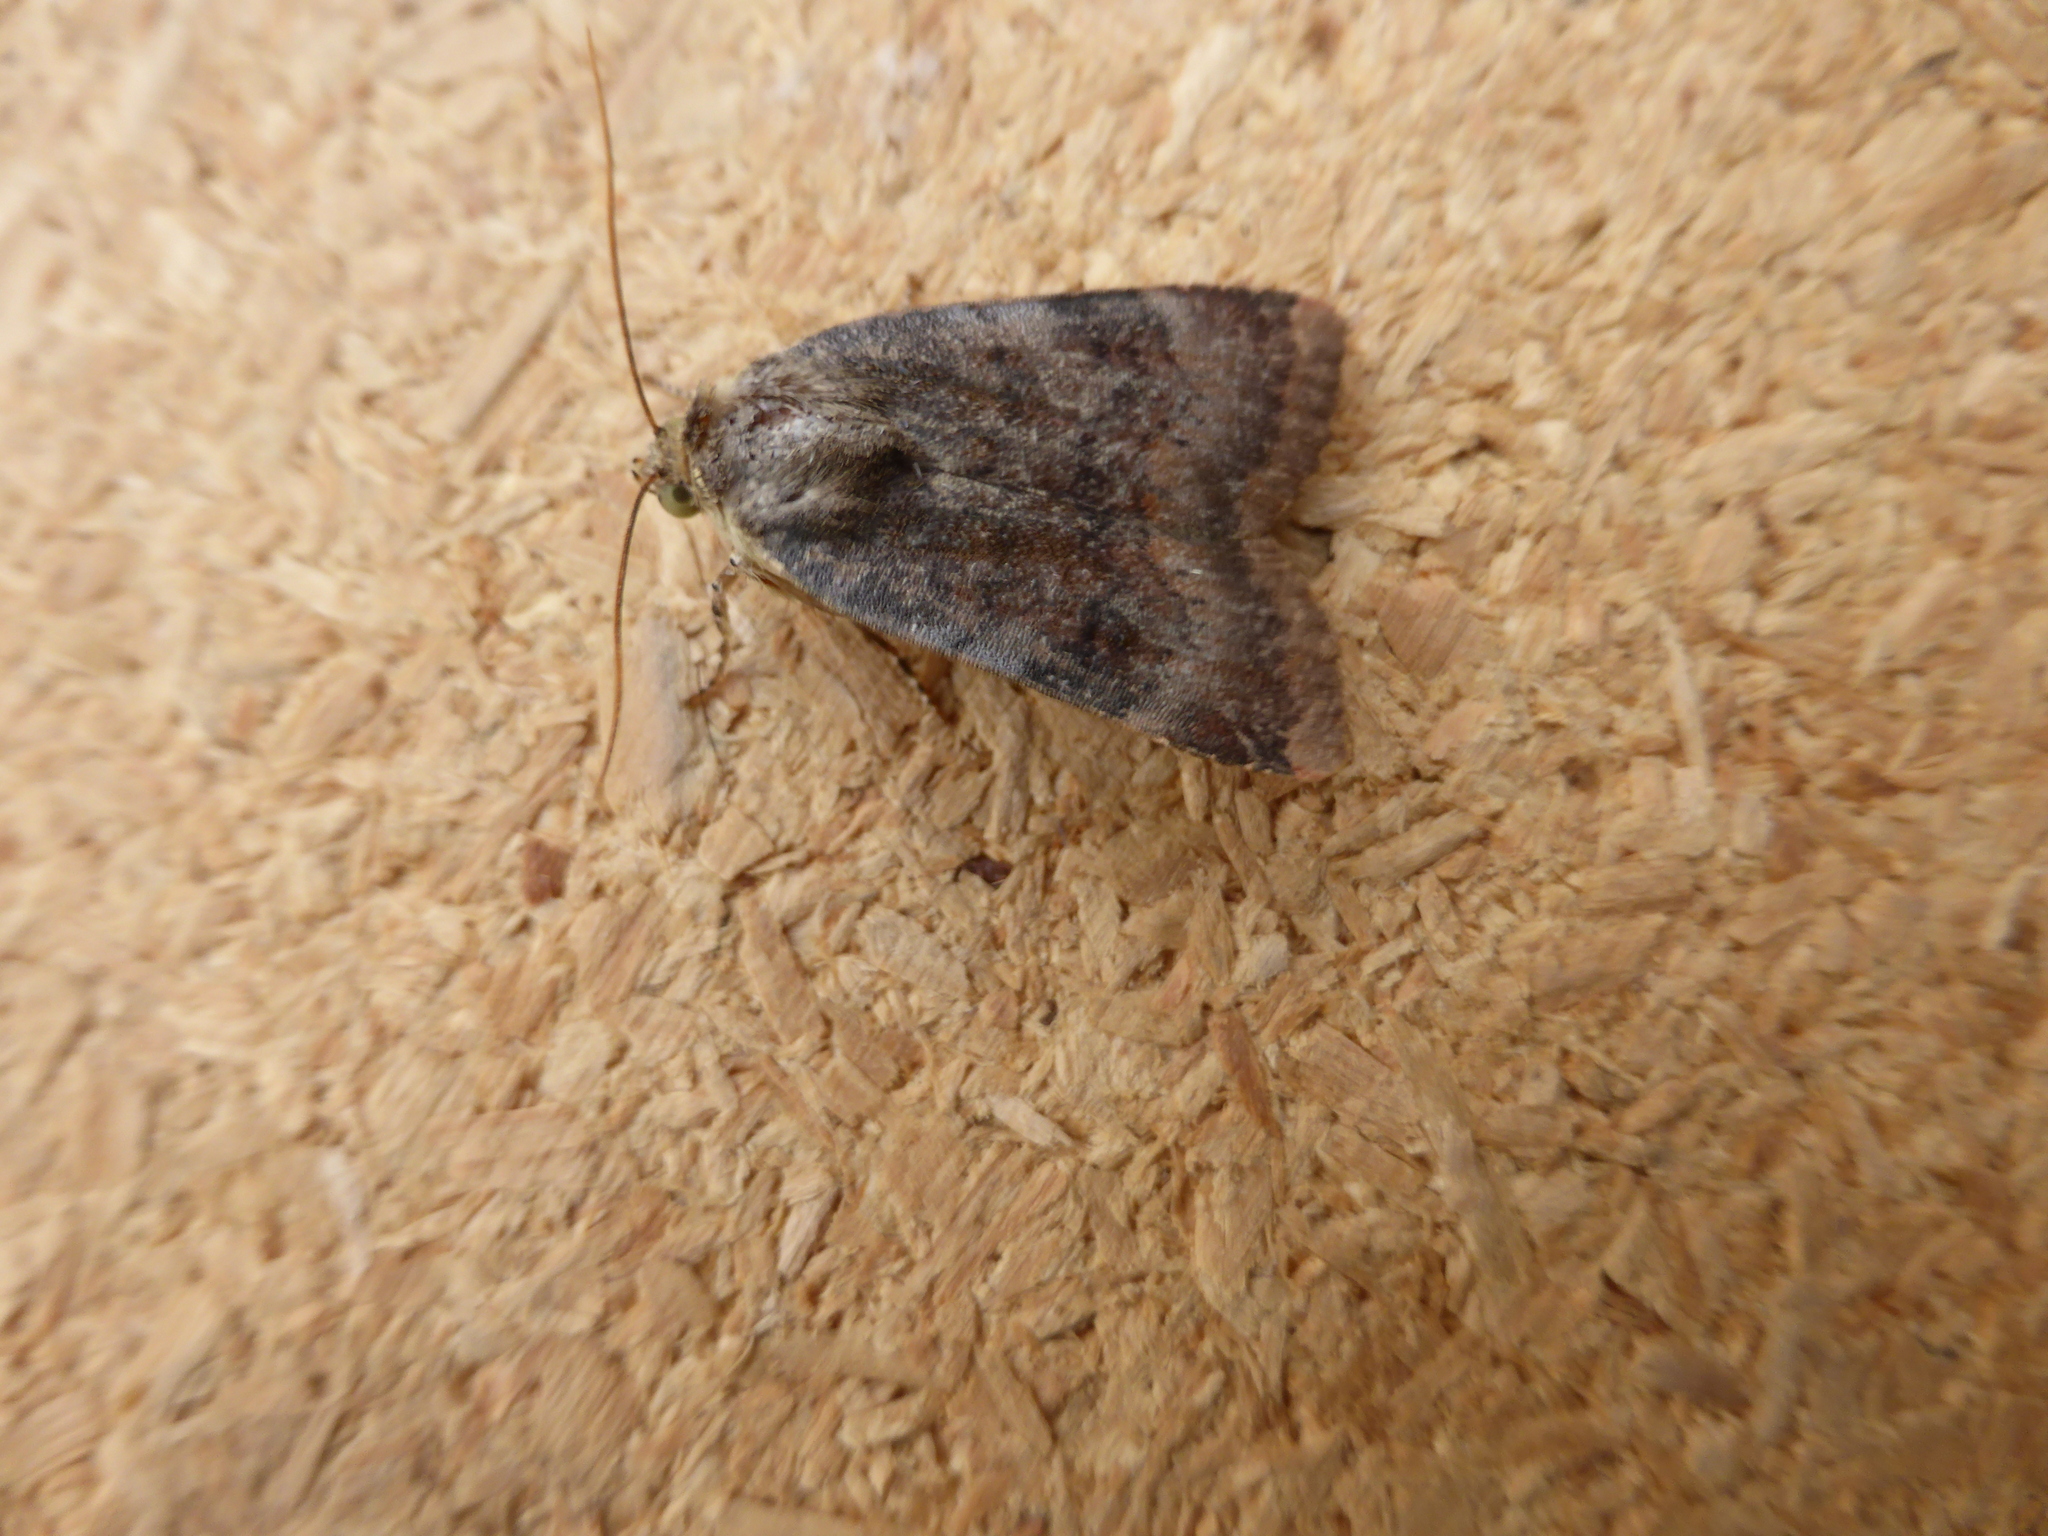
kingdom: Animalia
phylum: Arthropoda
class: Insecta
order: Lepidoptera
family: Noctuidae
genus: Noctua
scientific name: Noctua janthe
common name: Lesser broad-bordered yellow underwing
